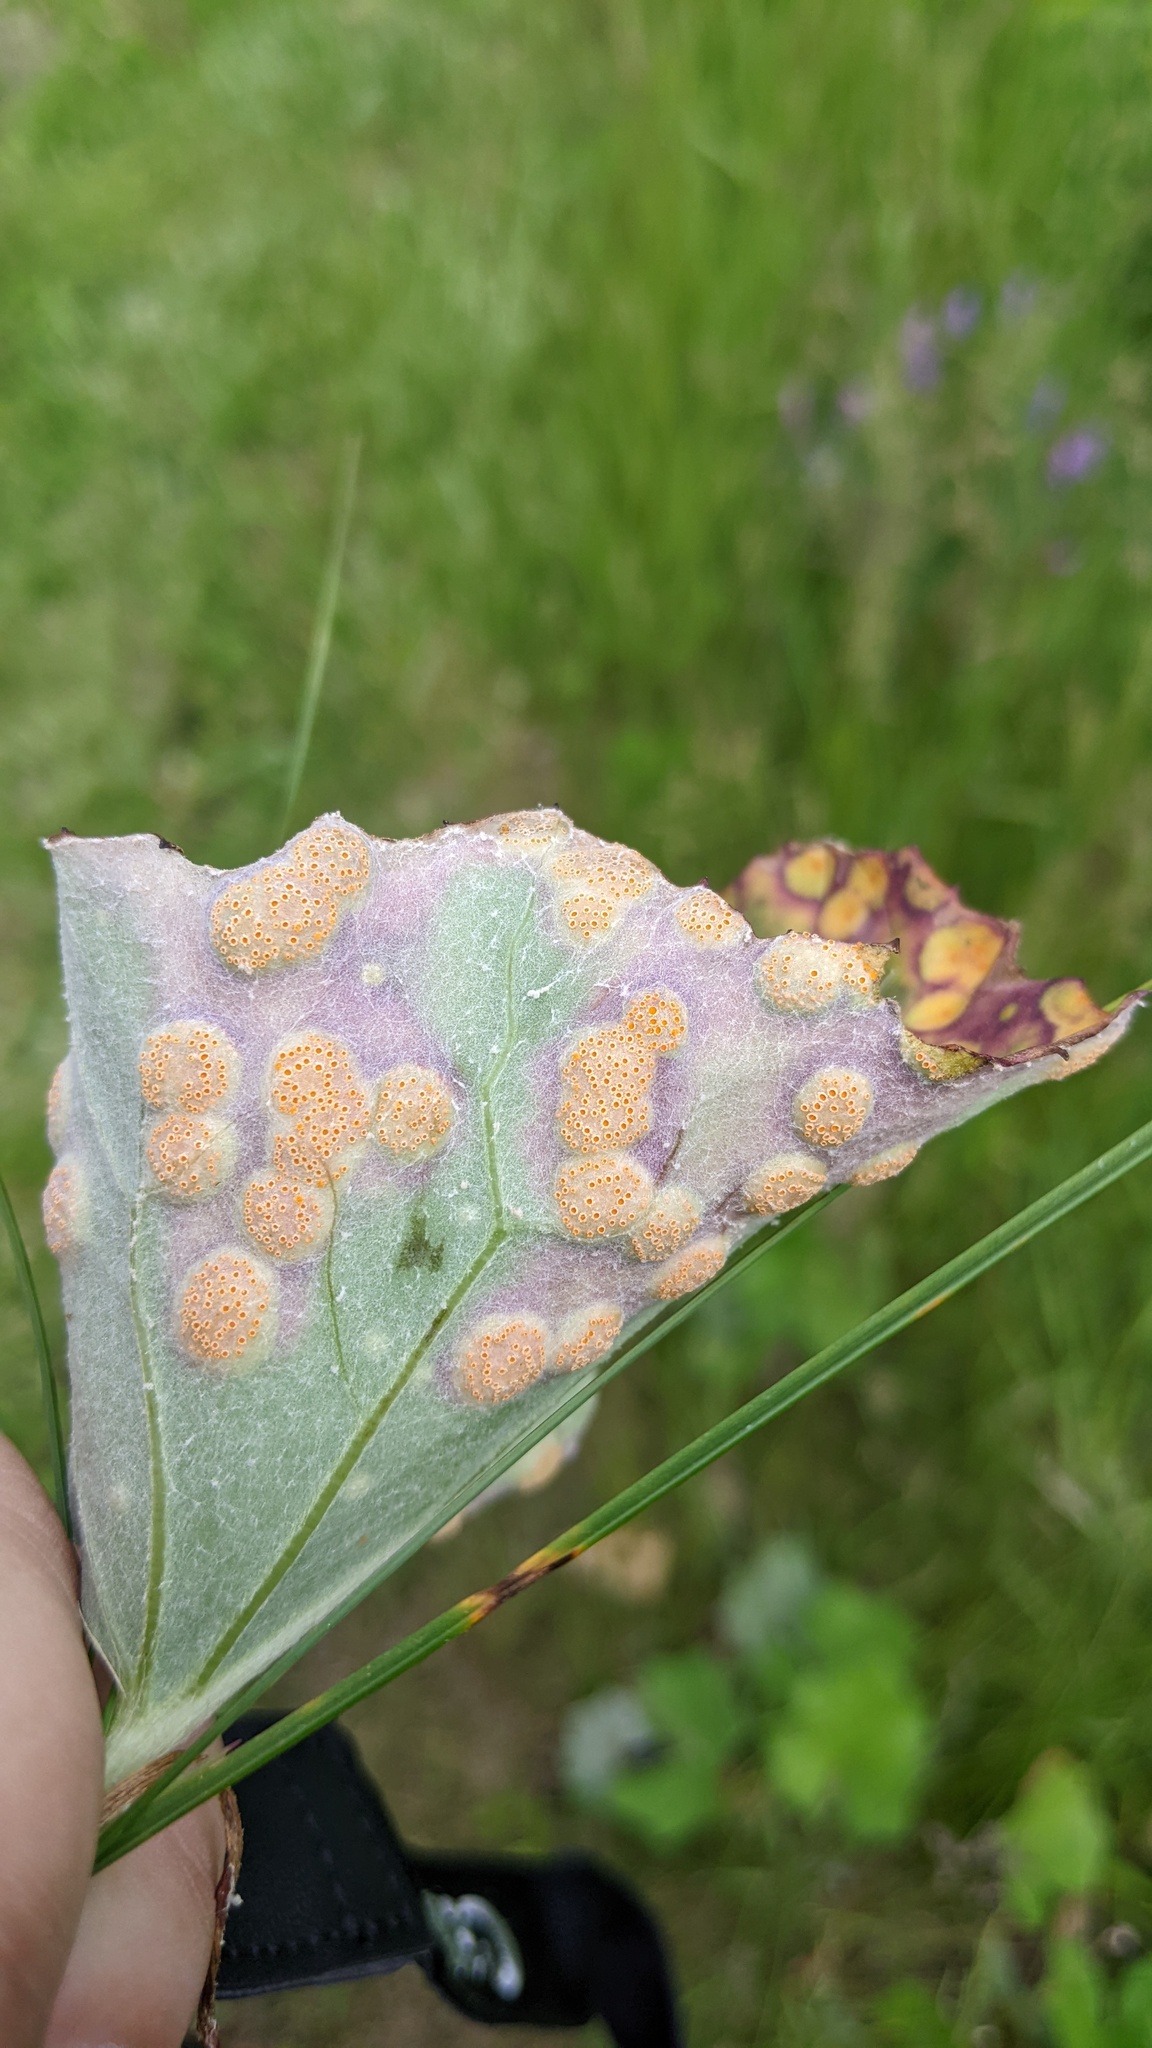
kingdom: Fungi
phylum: Basidiomycota
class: Pucciniomycetes
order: Pucciniales
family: Pucciniaceae
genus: Puccinia
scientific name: Puccinia poarum
